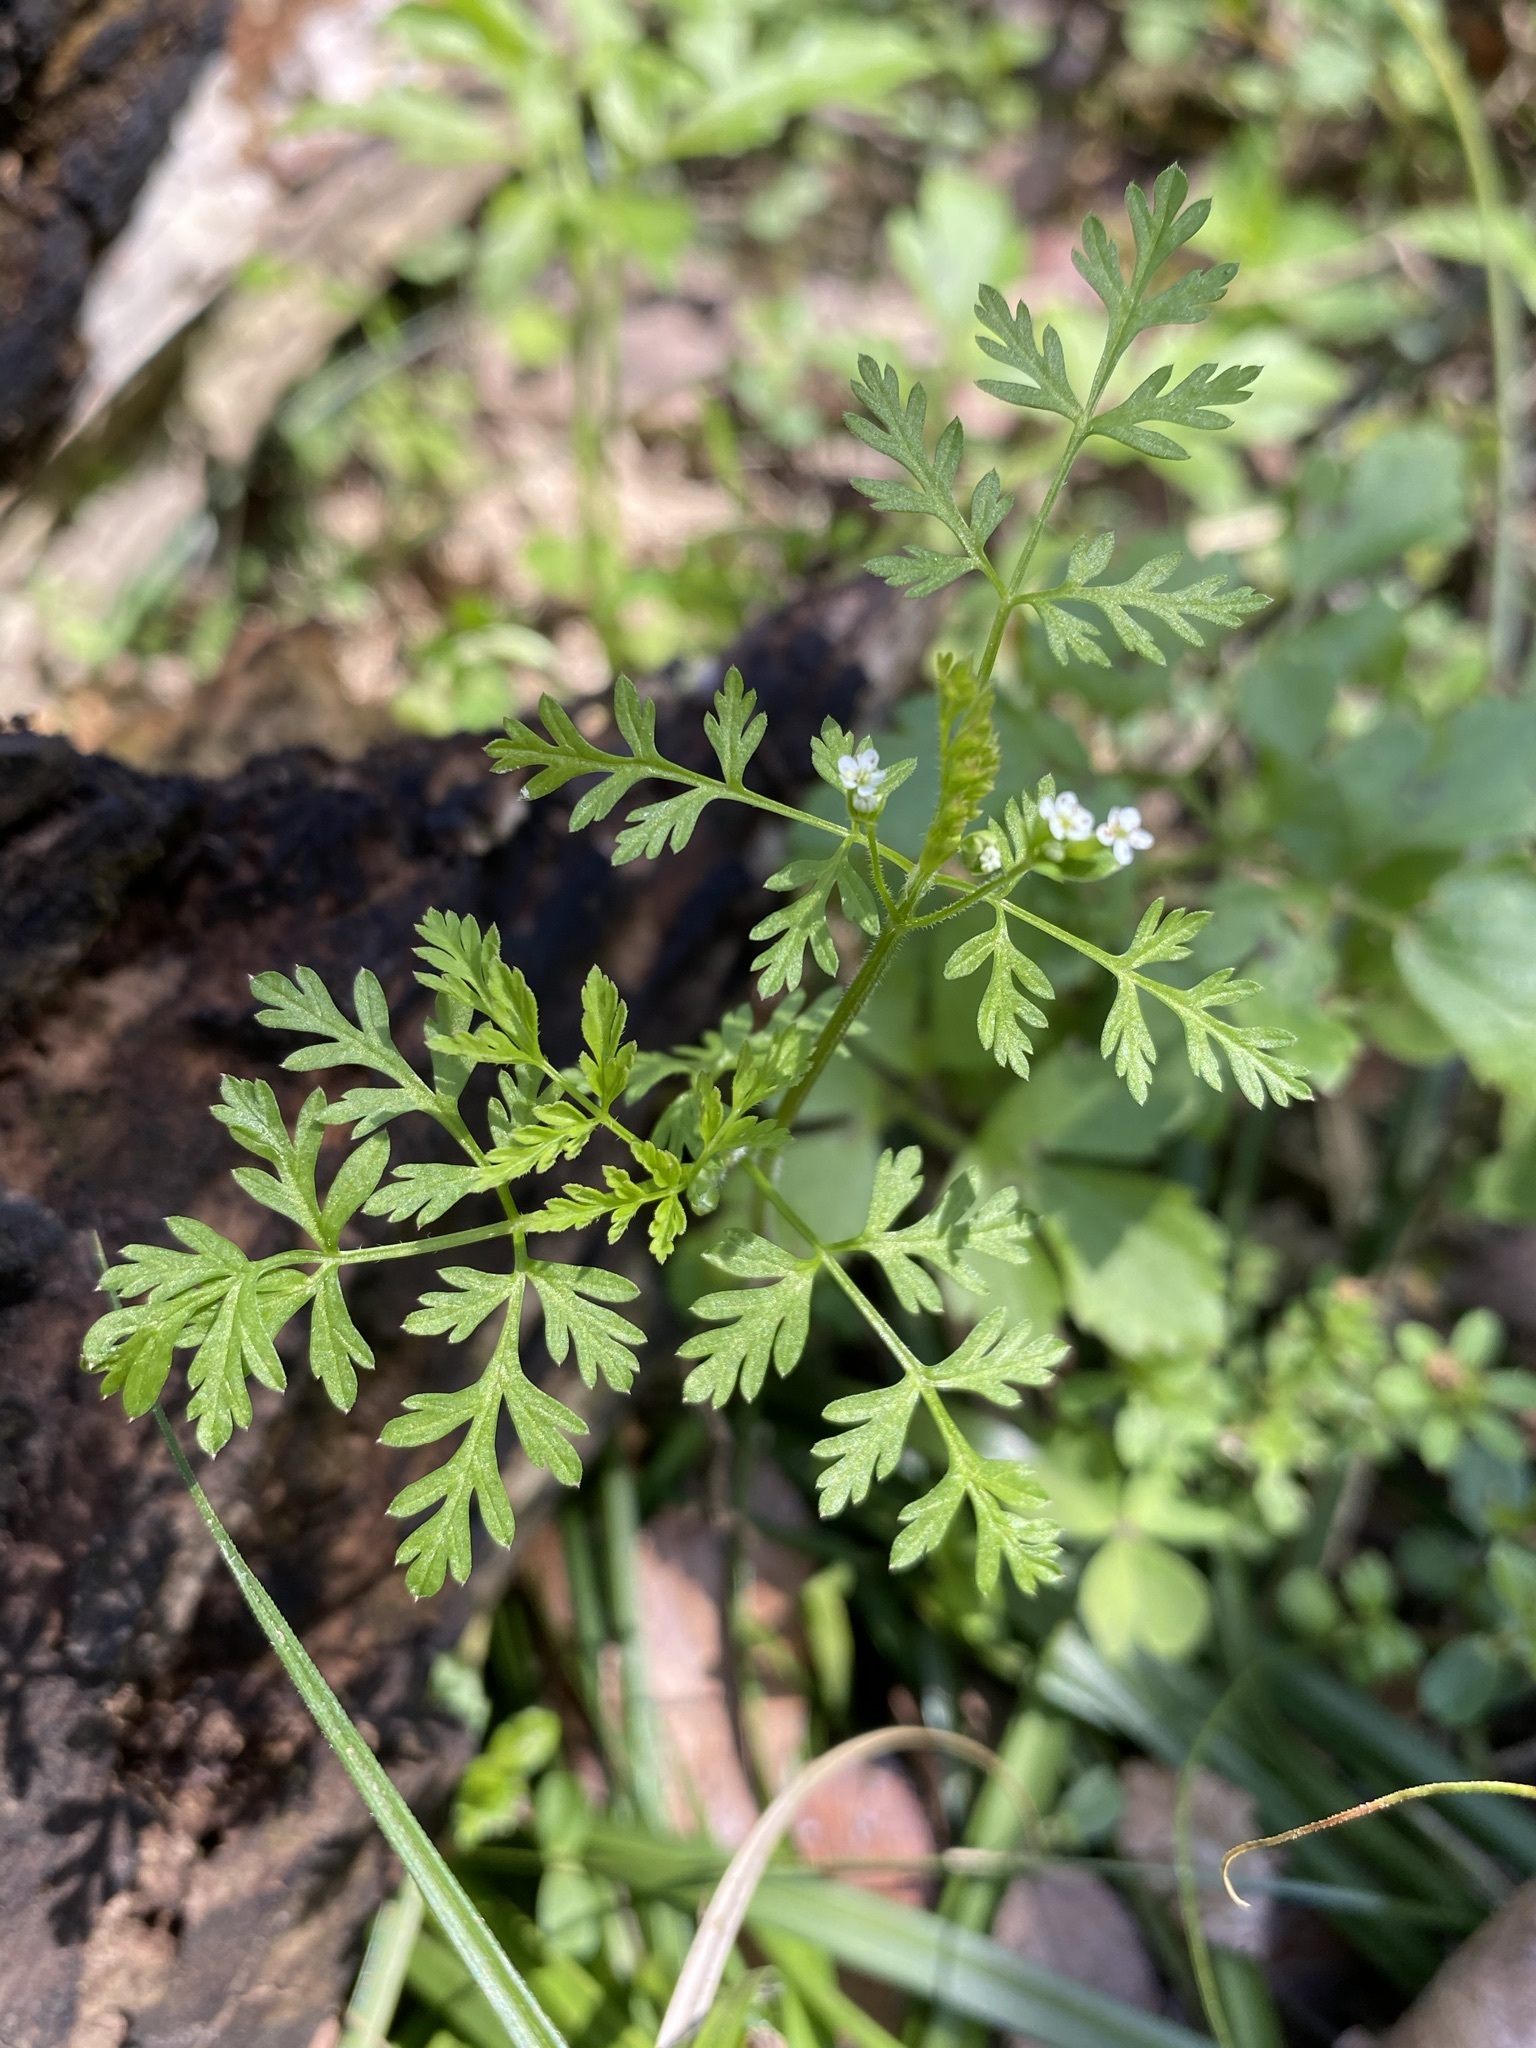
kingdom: Plantae
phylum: Tracheophyta
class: Magnoliopsida
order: Apiales
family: Apiaceae
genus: Chaerophyllum
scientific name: Chaerophyllum tainturieri
